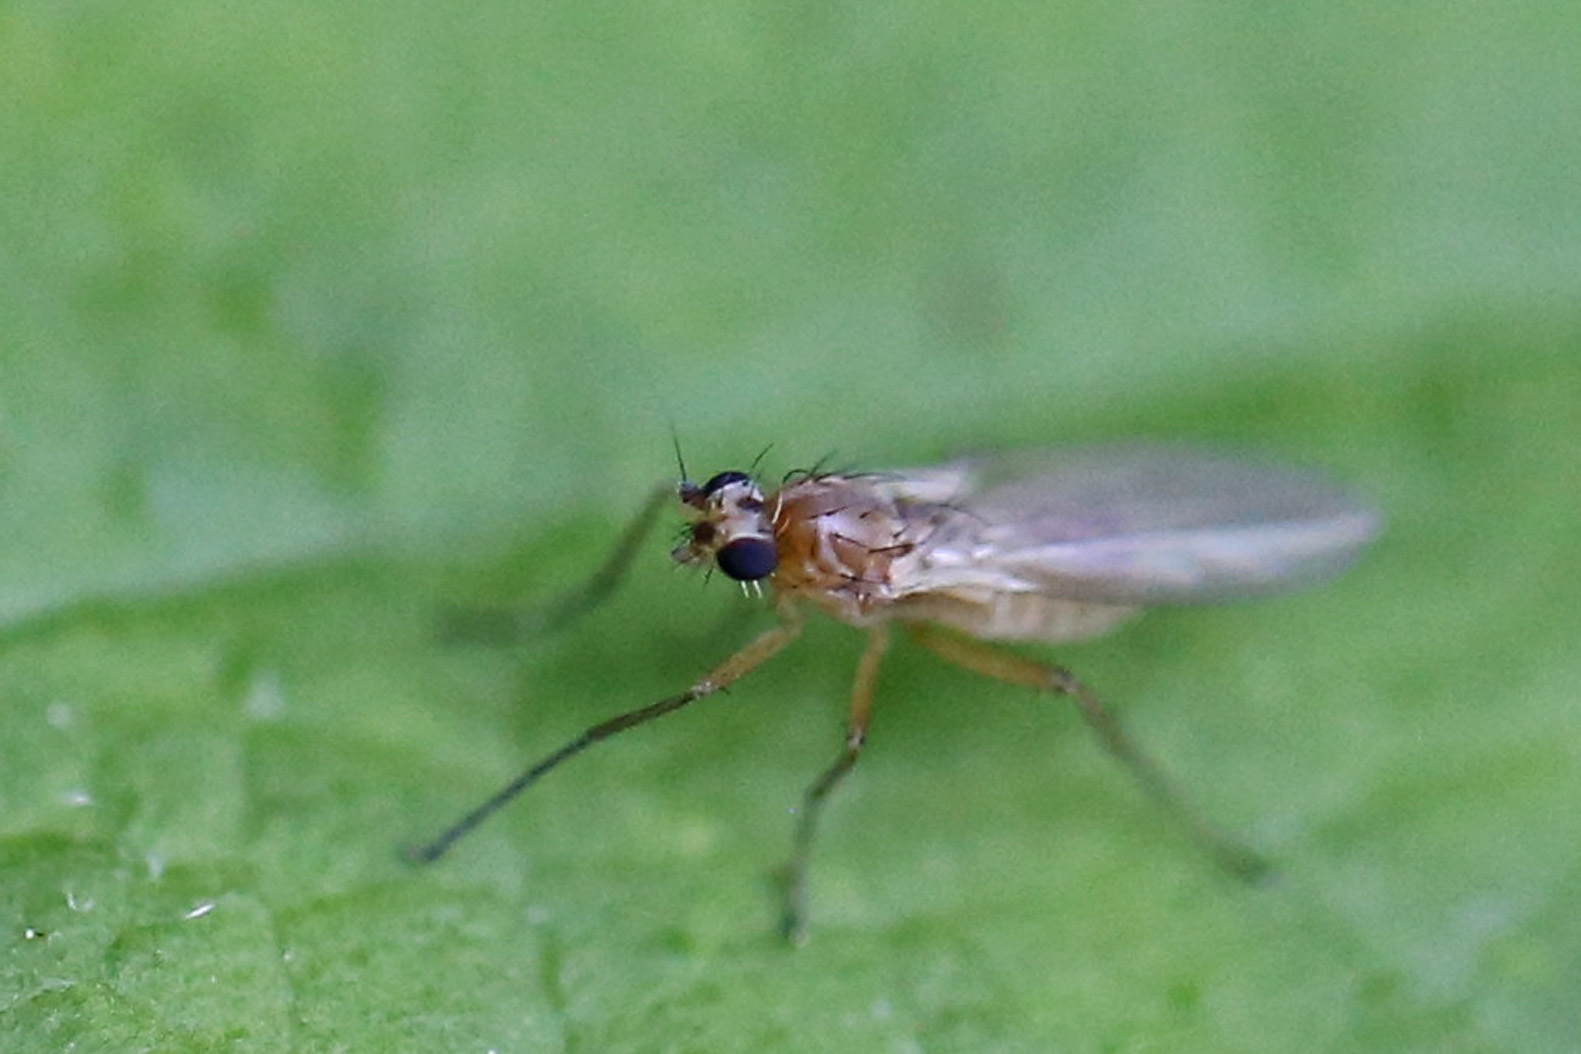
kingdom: Animalia
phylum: Arthropoda
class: Insecta
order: Diptera
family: Lonchopteridae
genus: Lonchoptera
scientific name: Lonchoptera bifurcata
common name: Spear-winged fly
